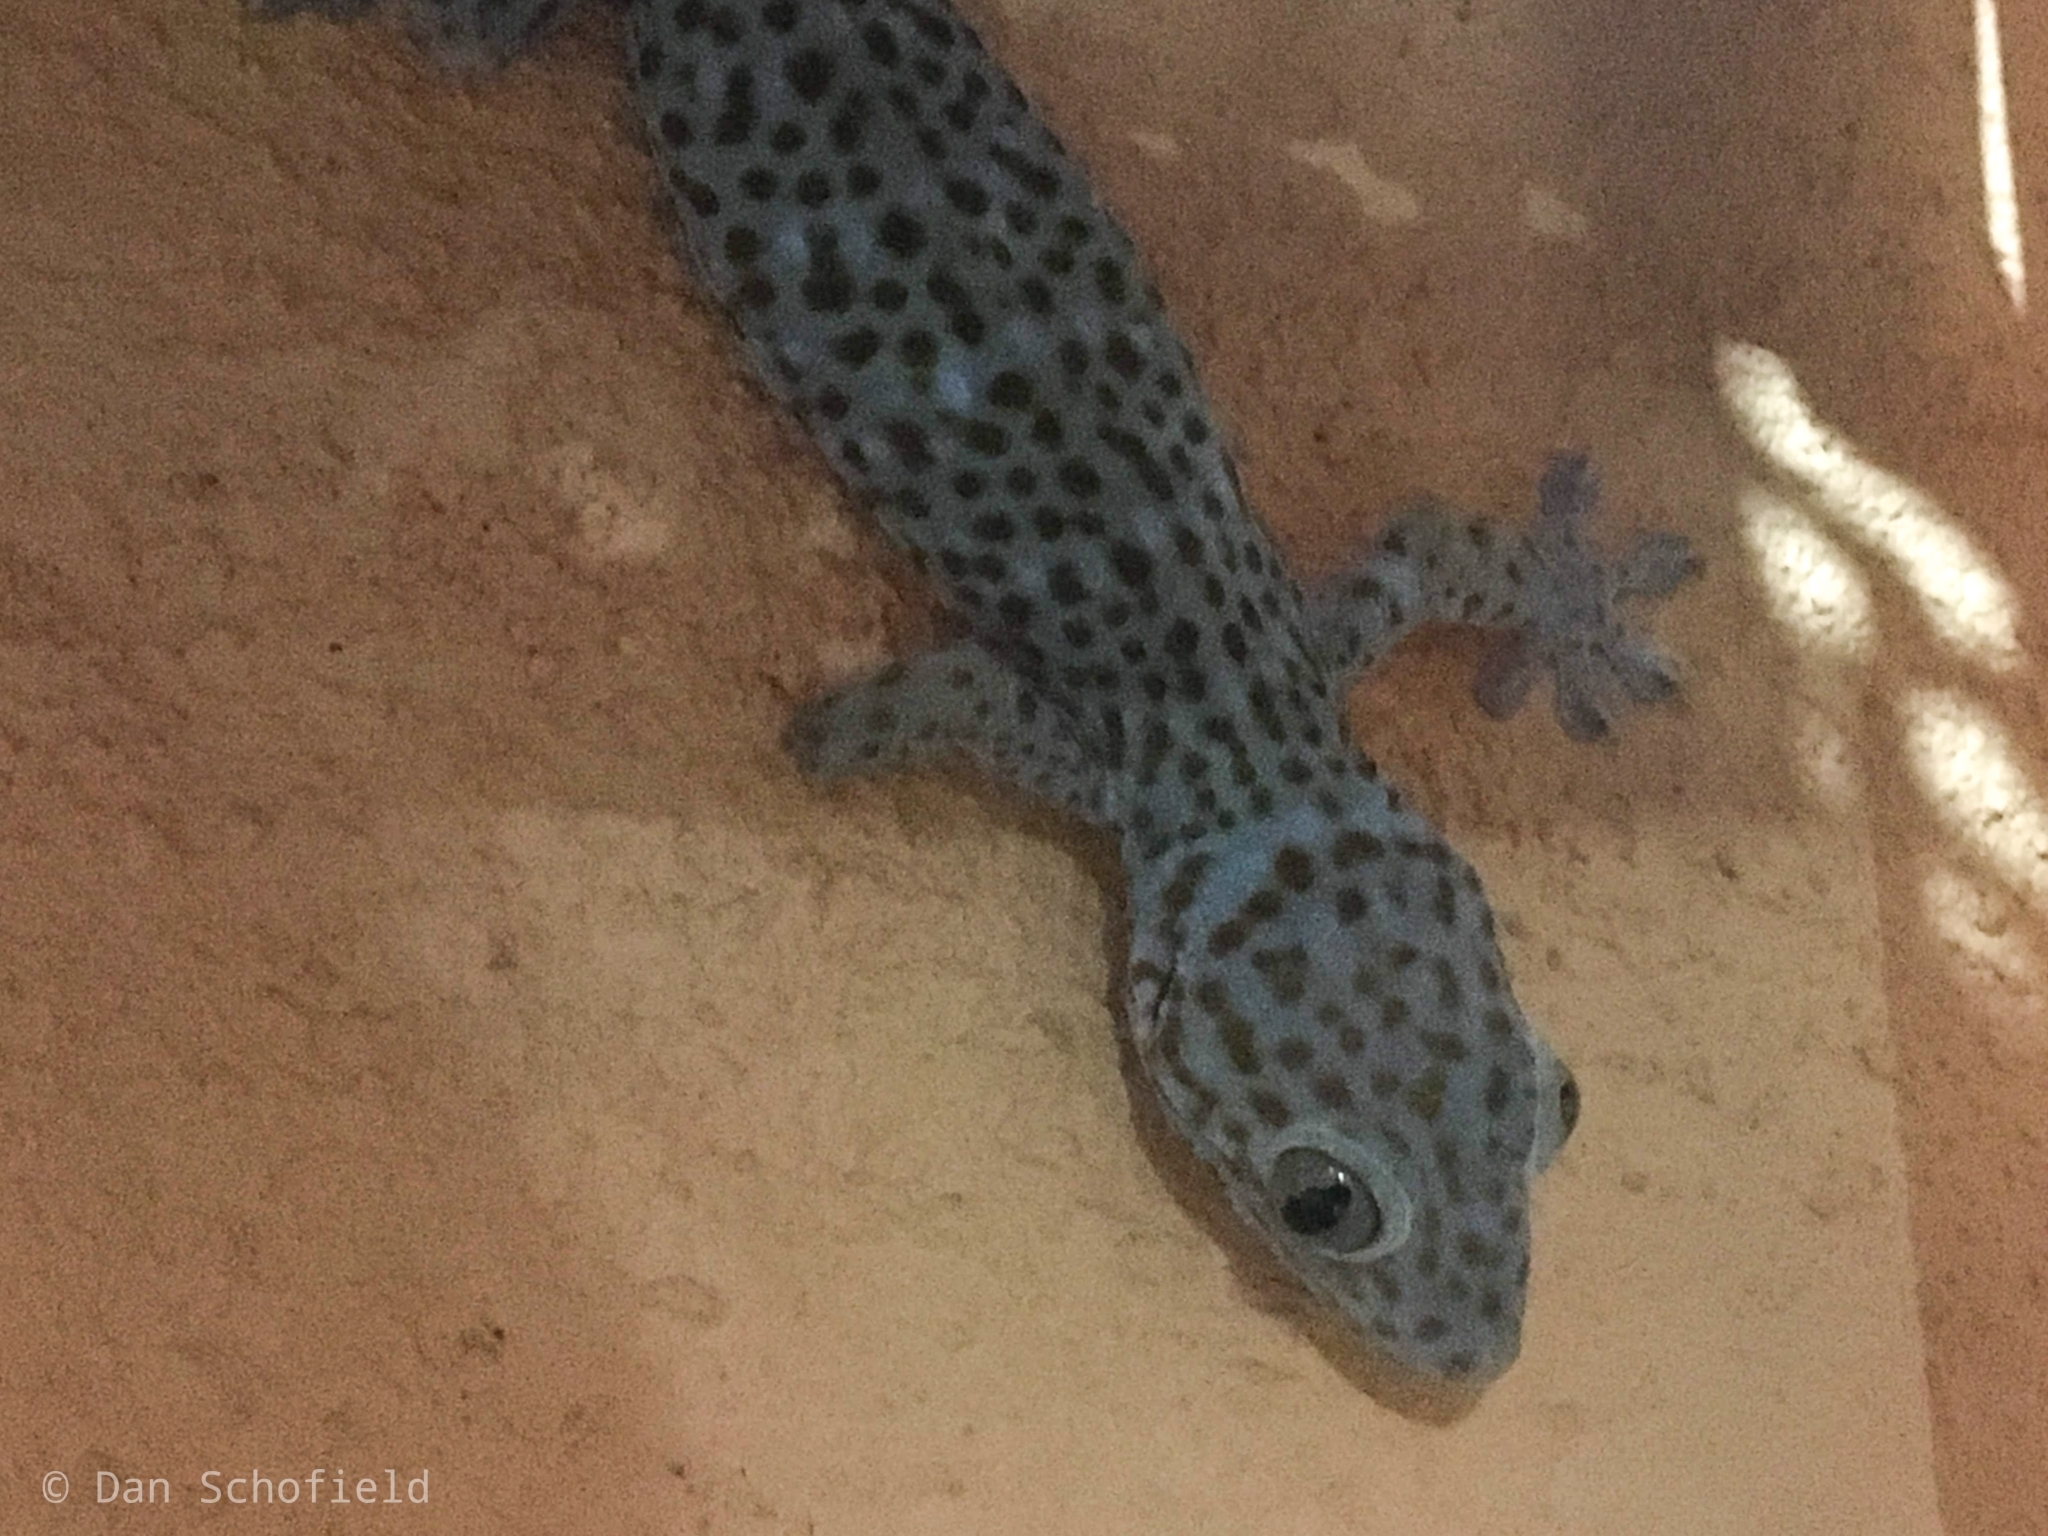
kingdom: Animalia
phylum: Chordata
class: Squamata
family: Gekkonidae
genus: Gekko
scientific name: Gekko gecko
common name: Tokay gecko
